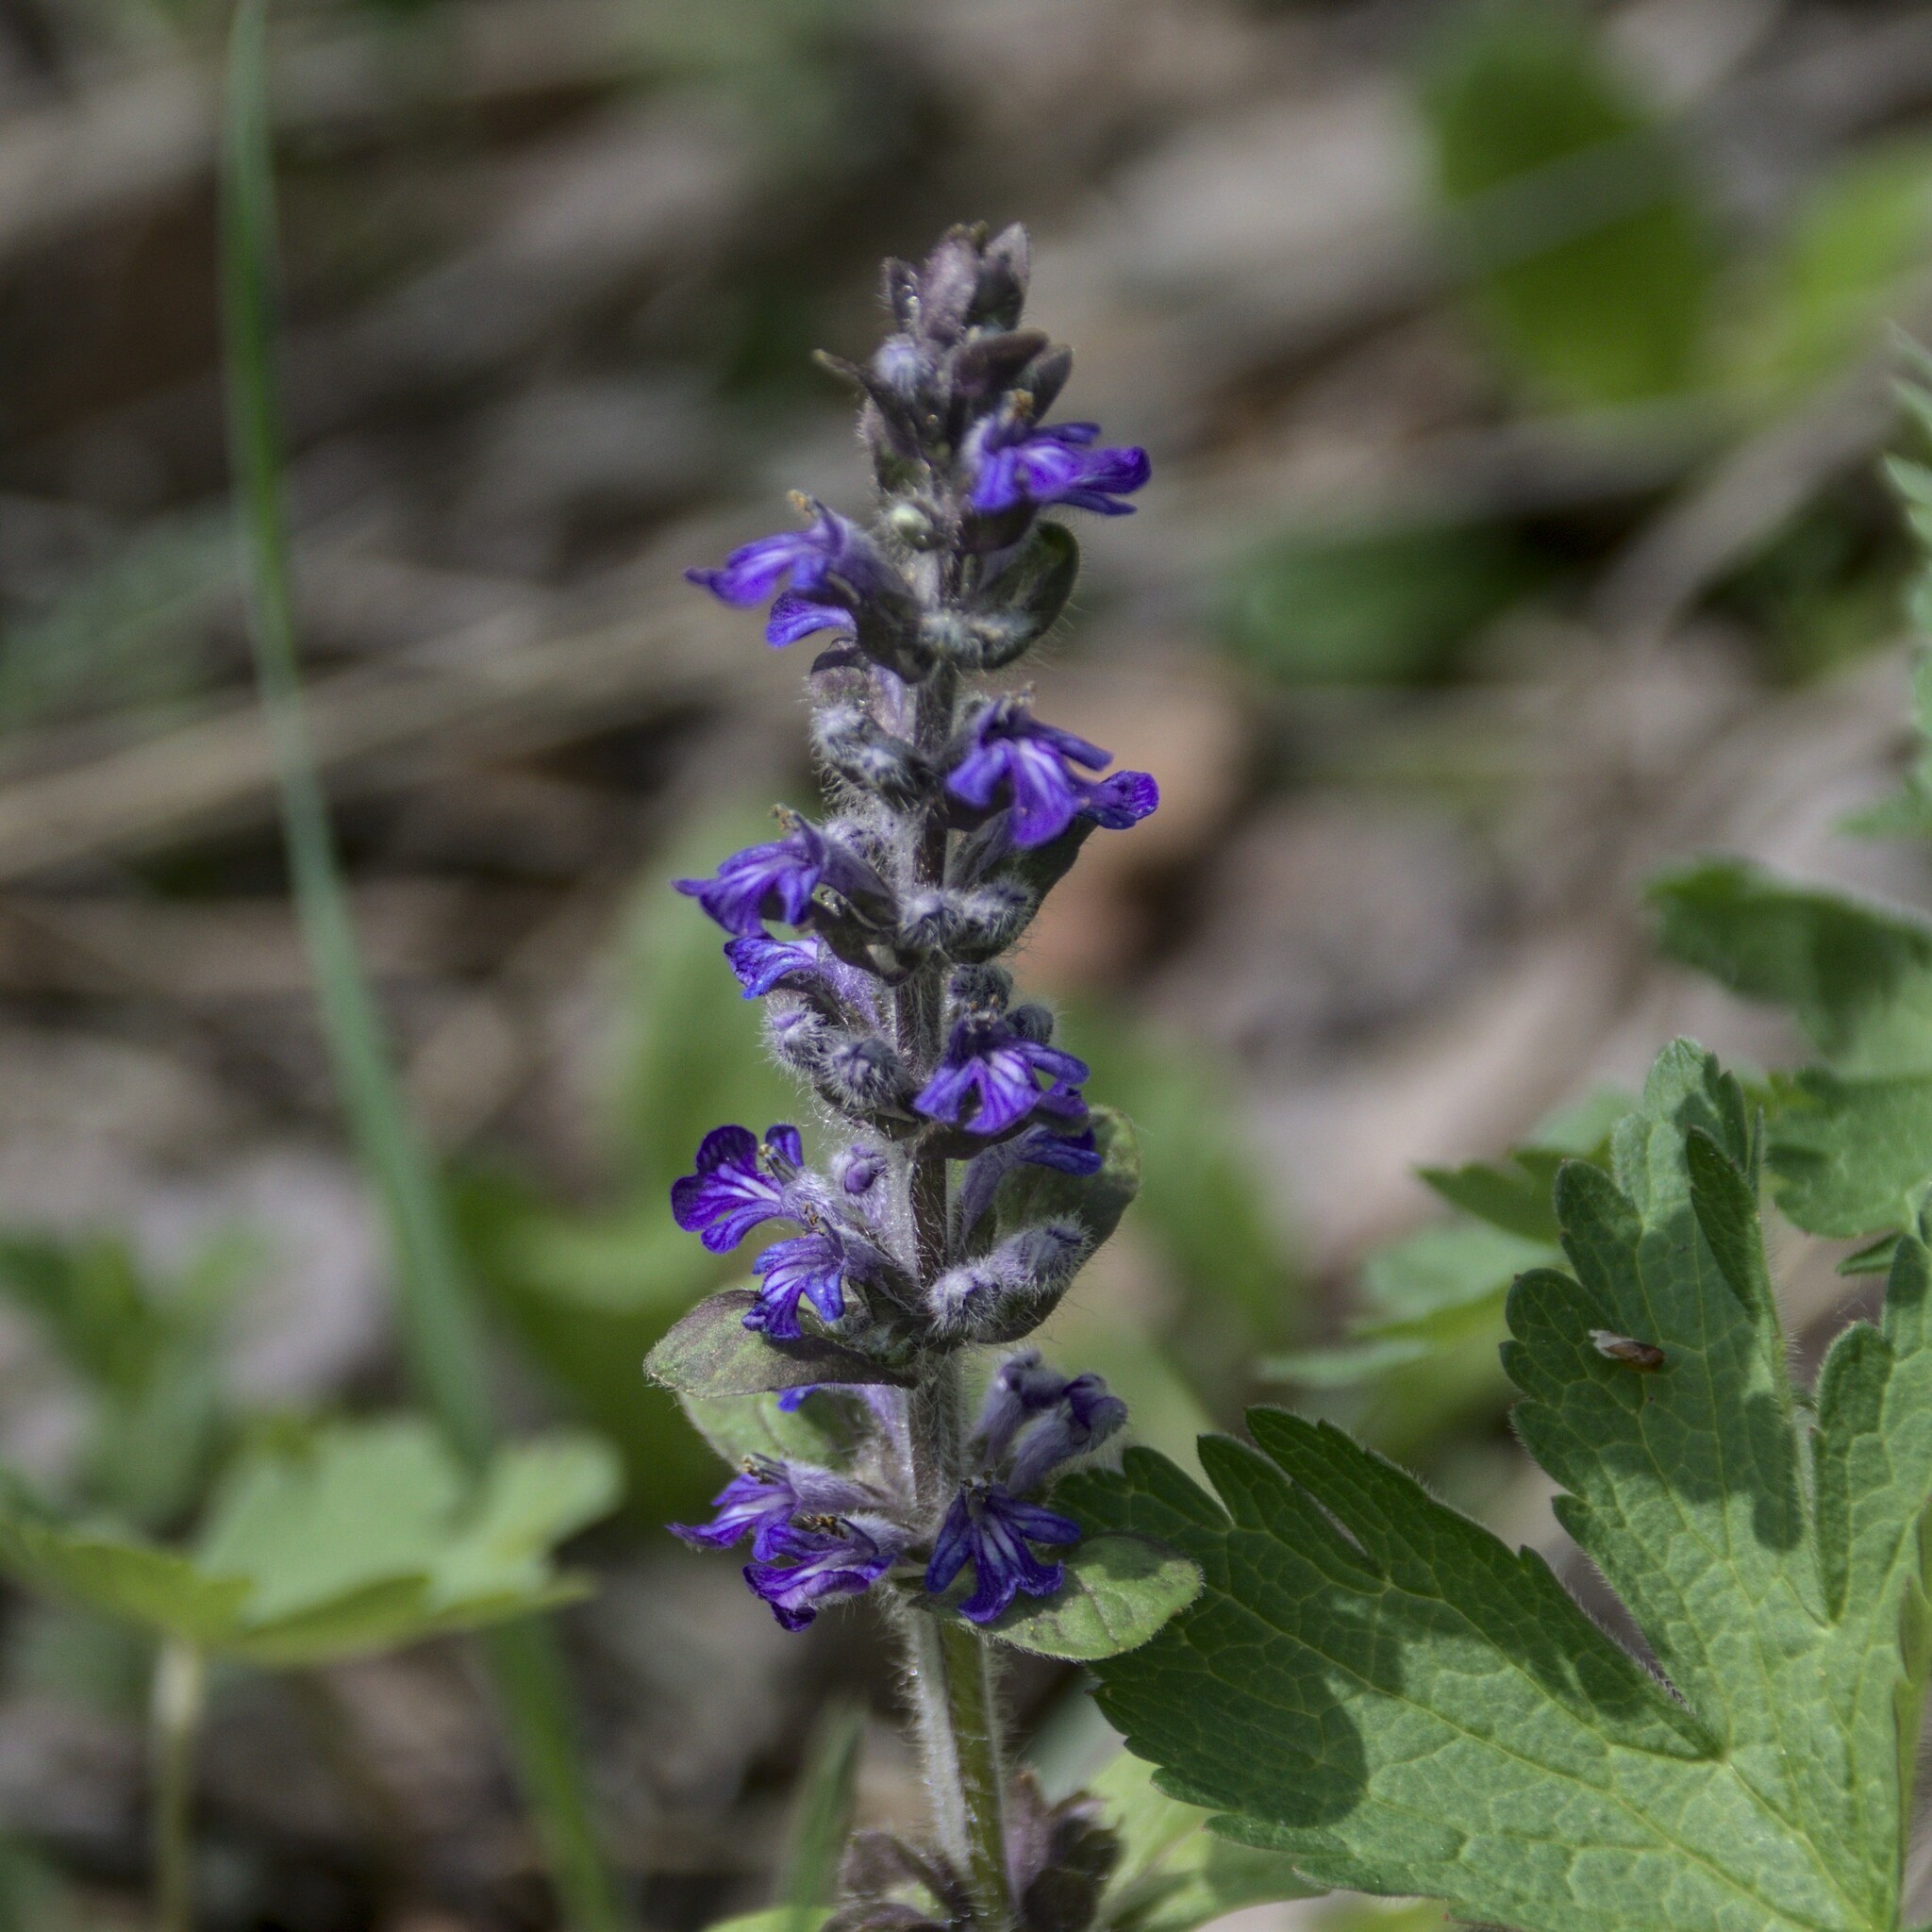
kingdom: Plantae
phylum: Tracheophyta
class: Magnoliopsida
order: Lamiales
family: Lamiaceae
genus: Ajuga
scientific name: Ajuga reptans
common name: Bugle
